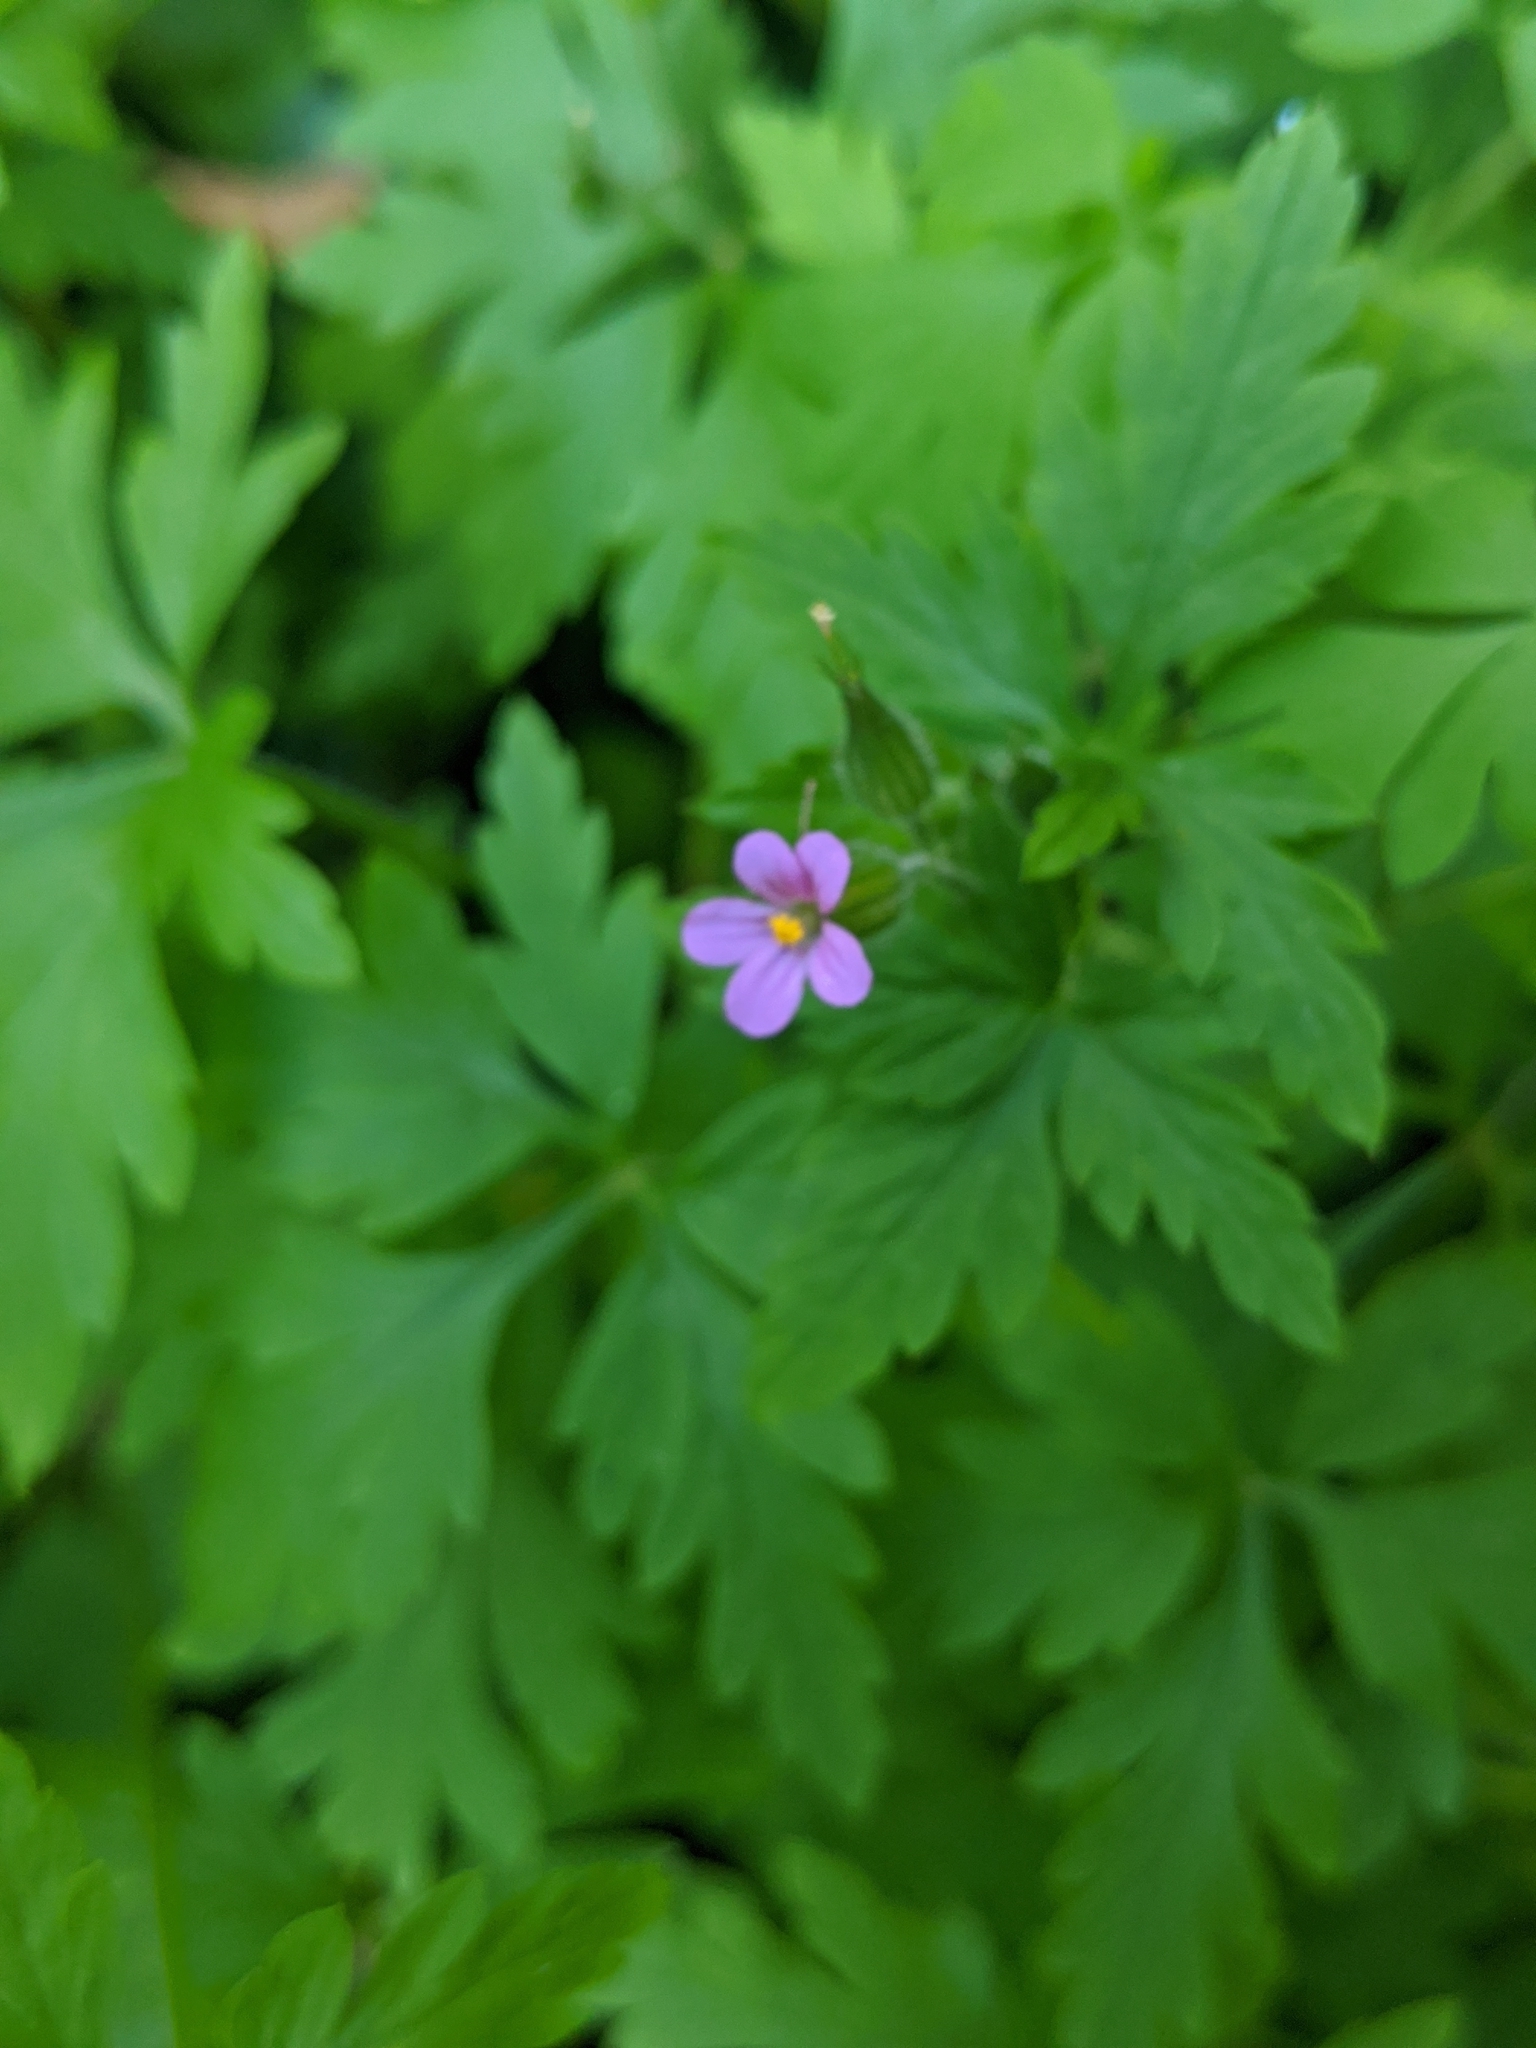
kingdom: Plantae
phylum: Tracheophyta
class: Magnoliopsida
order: Geraniales
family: Geraniaceae
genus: Geranium
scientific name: Geranium purpureum
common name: Little-robin
